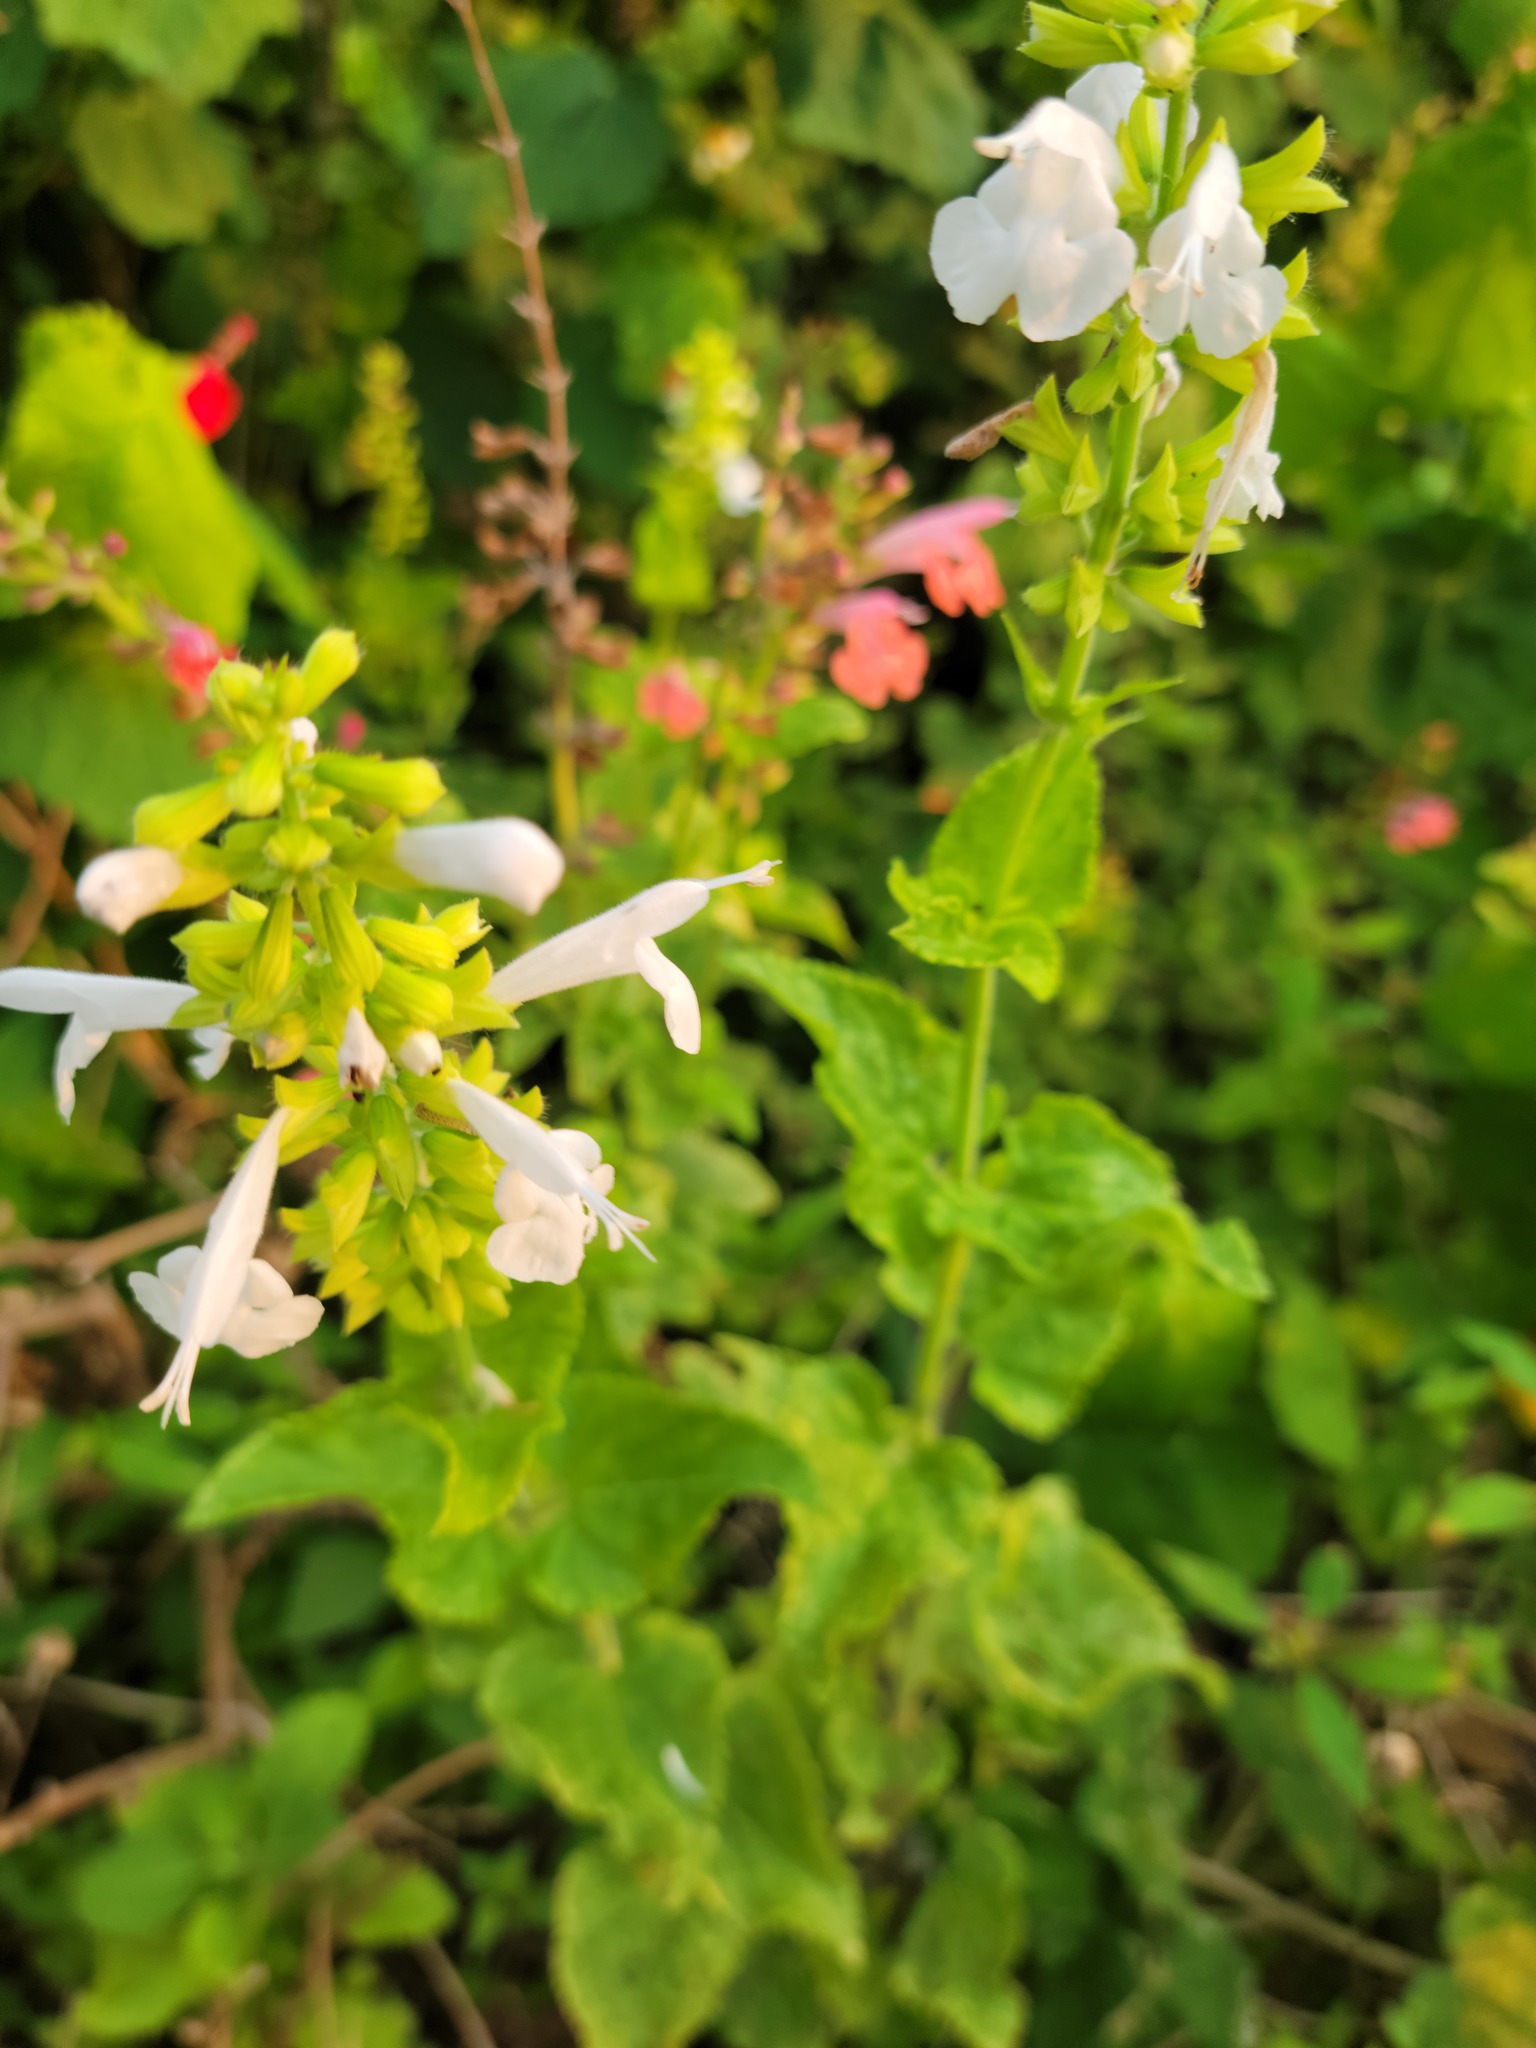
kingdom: Plantae
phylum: Tracheophyta
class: Magnoliopsida
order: Lamiales
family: Lamiaceae
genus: Salvia
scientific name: Salvia coccinea
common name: Blood sage
